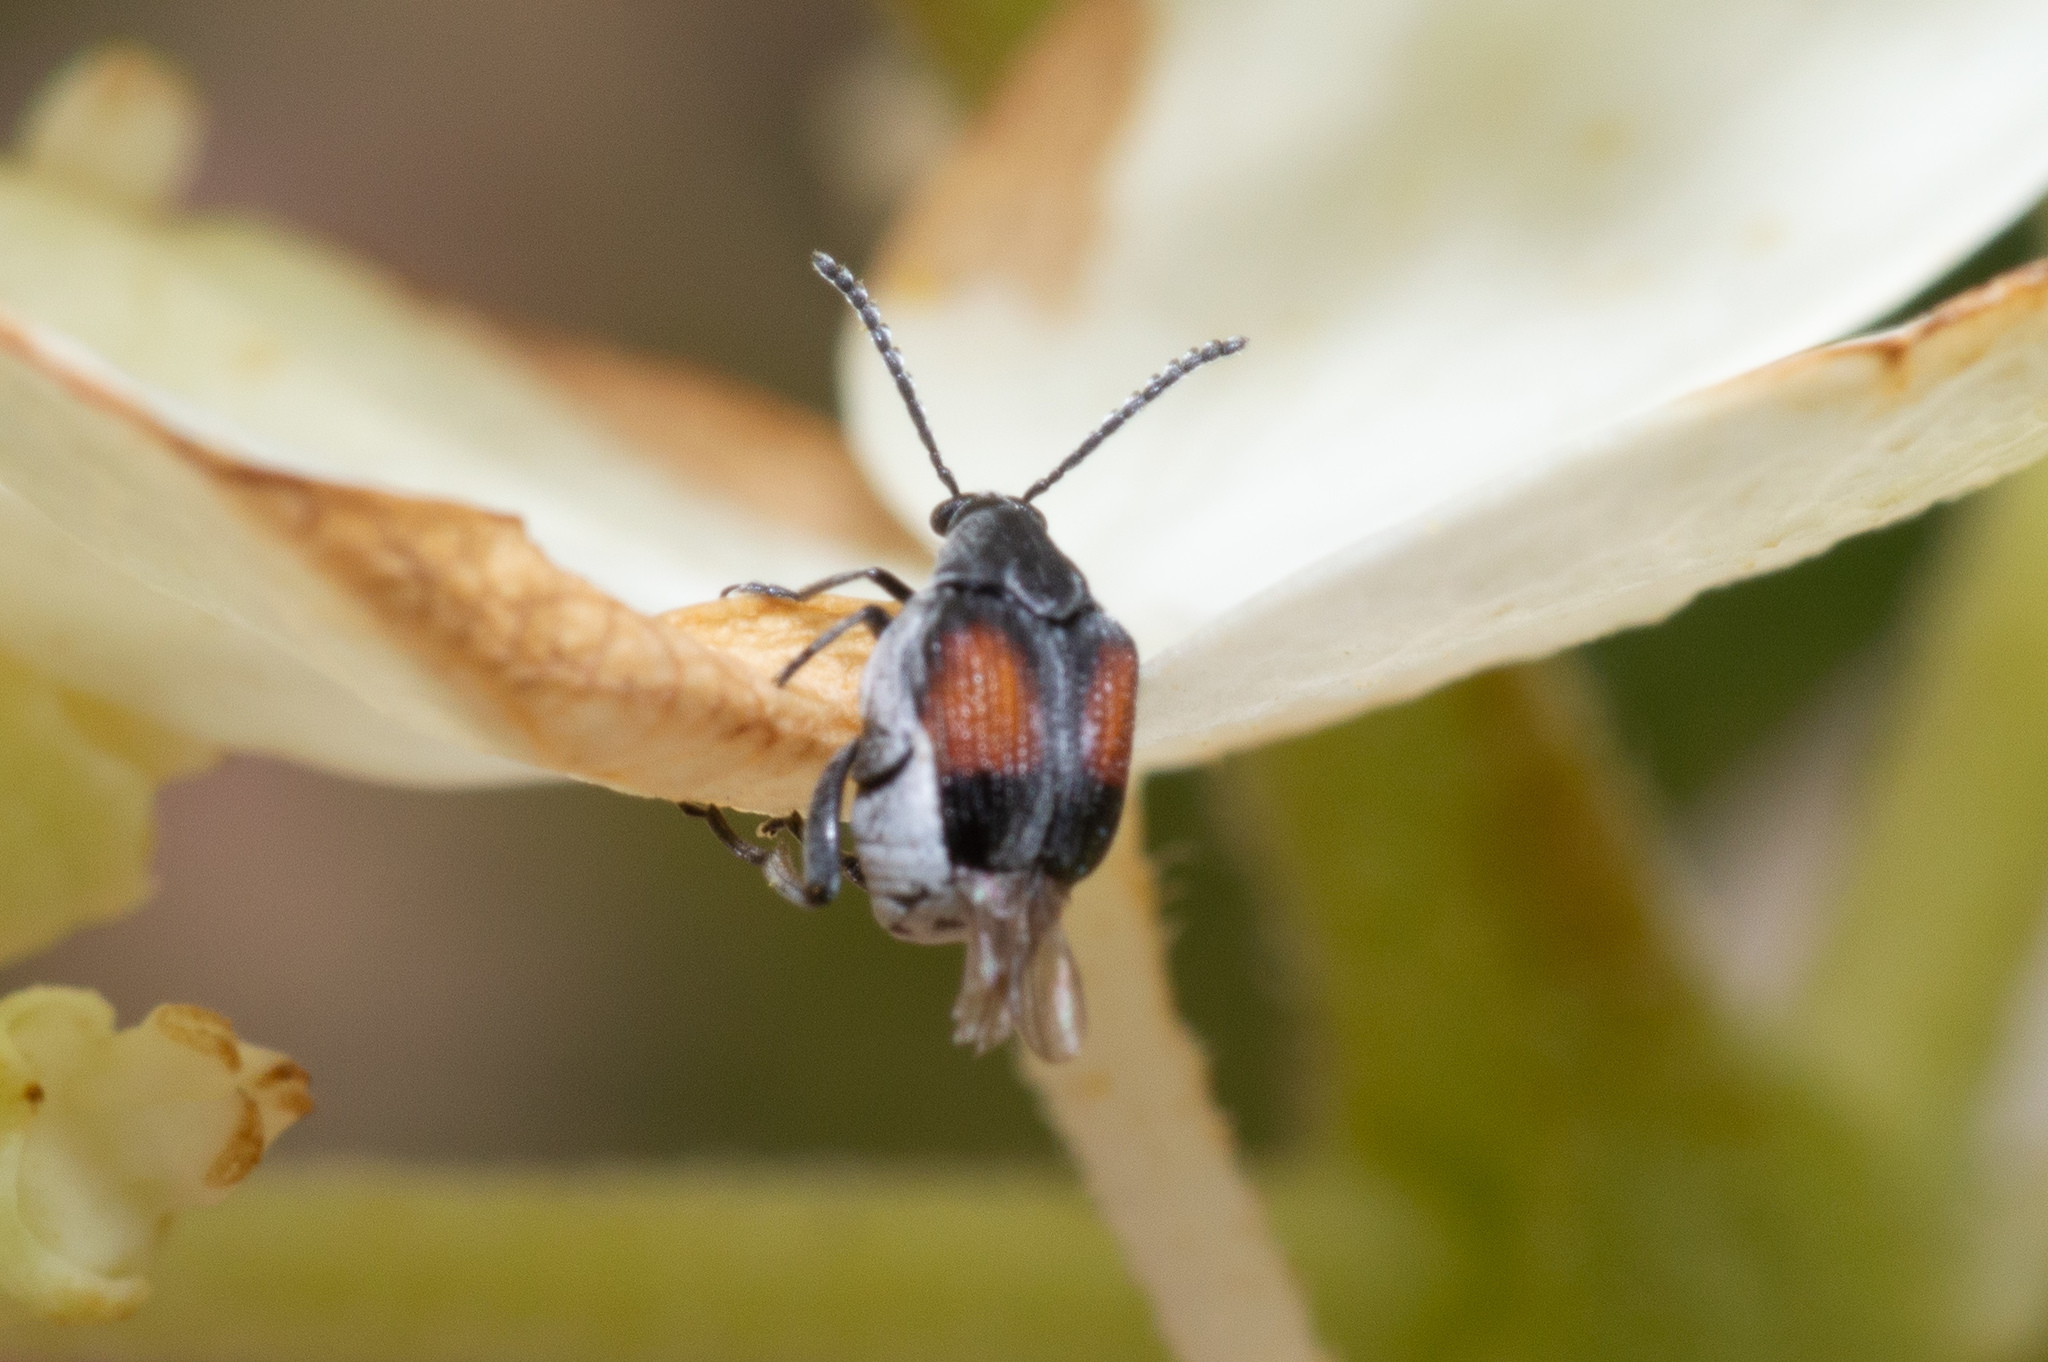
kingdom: Animalia
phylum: Arthropoda
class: Insecta
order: Coleoptera
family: Chrysomelidae
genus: Megacerus
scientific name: Megacerus discoidus
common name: Red megacerus
